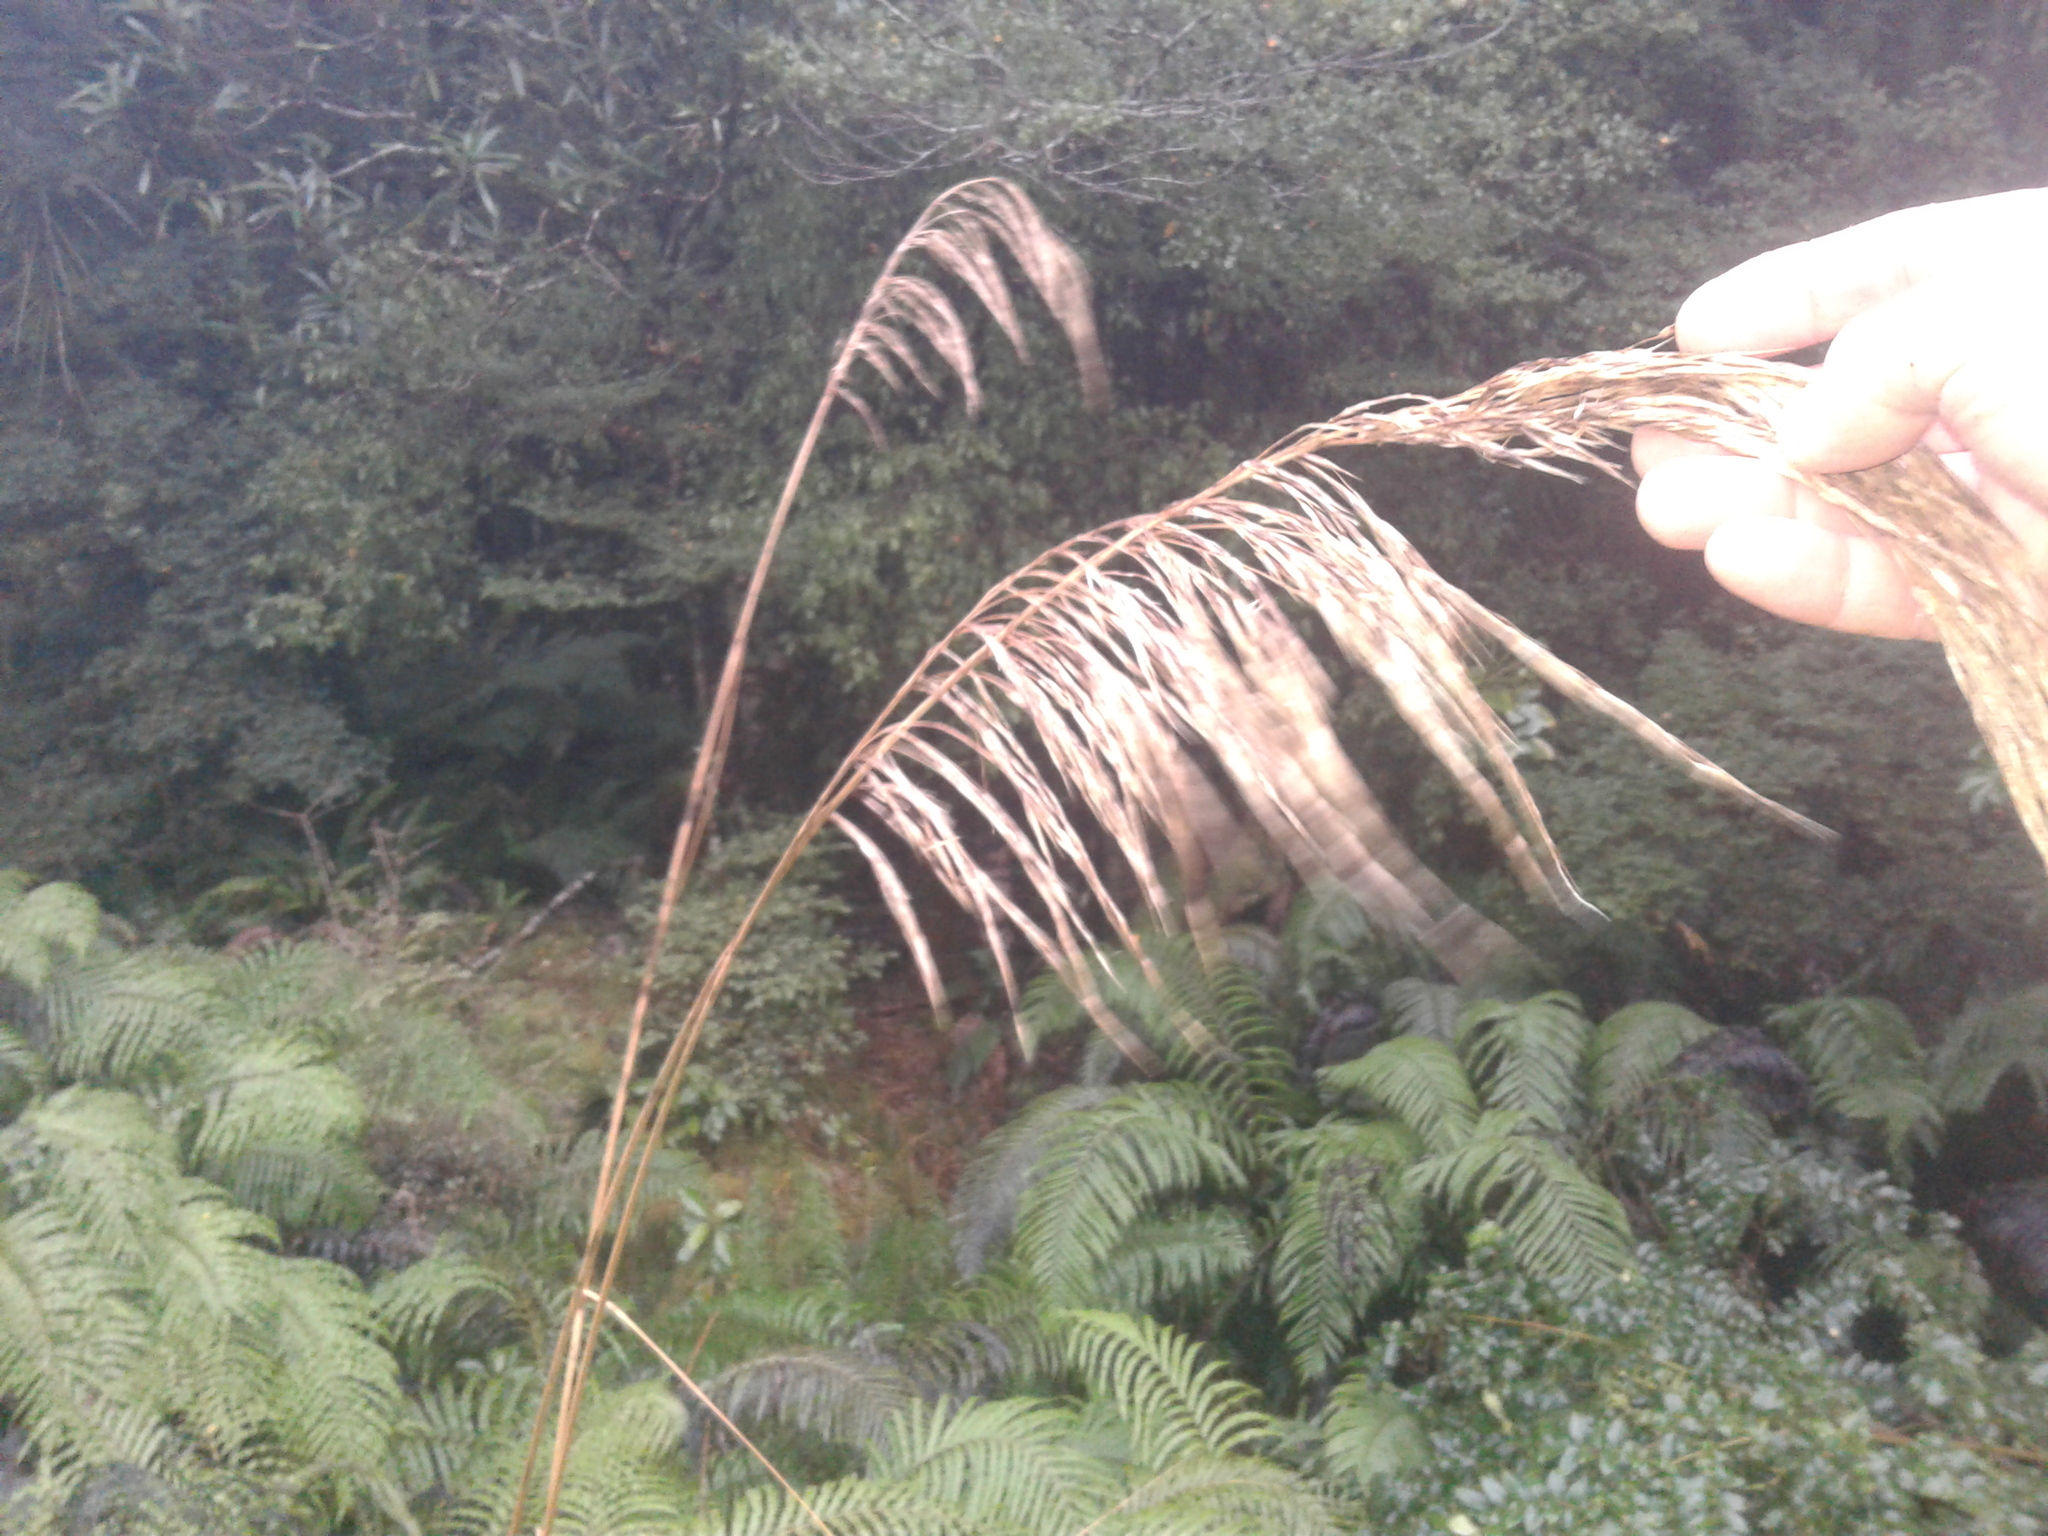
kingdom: Plantae
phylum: Tracheophyta
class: Liliopsida
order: Poales
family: Poaceae
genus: Austroderia
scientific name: Austroderia richardii
